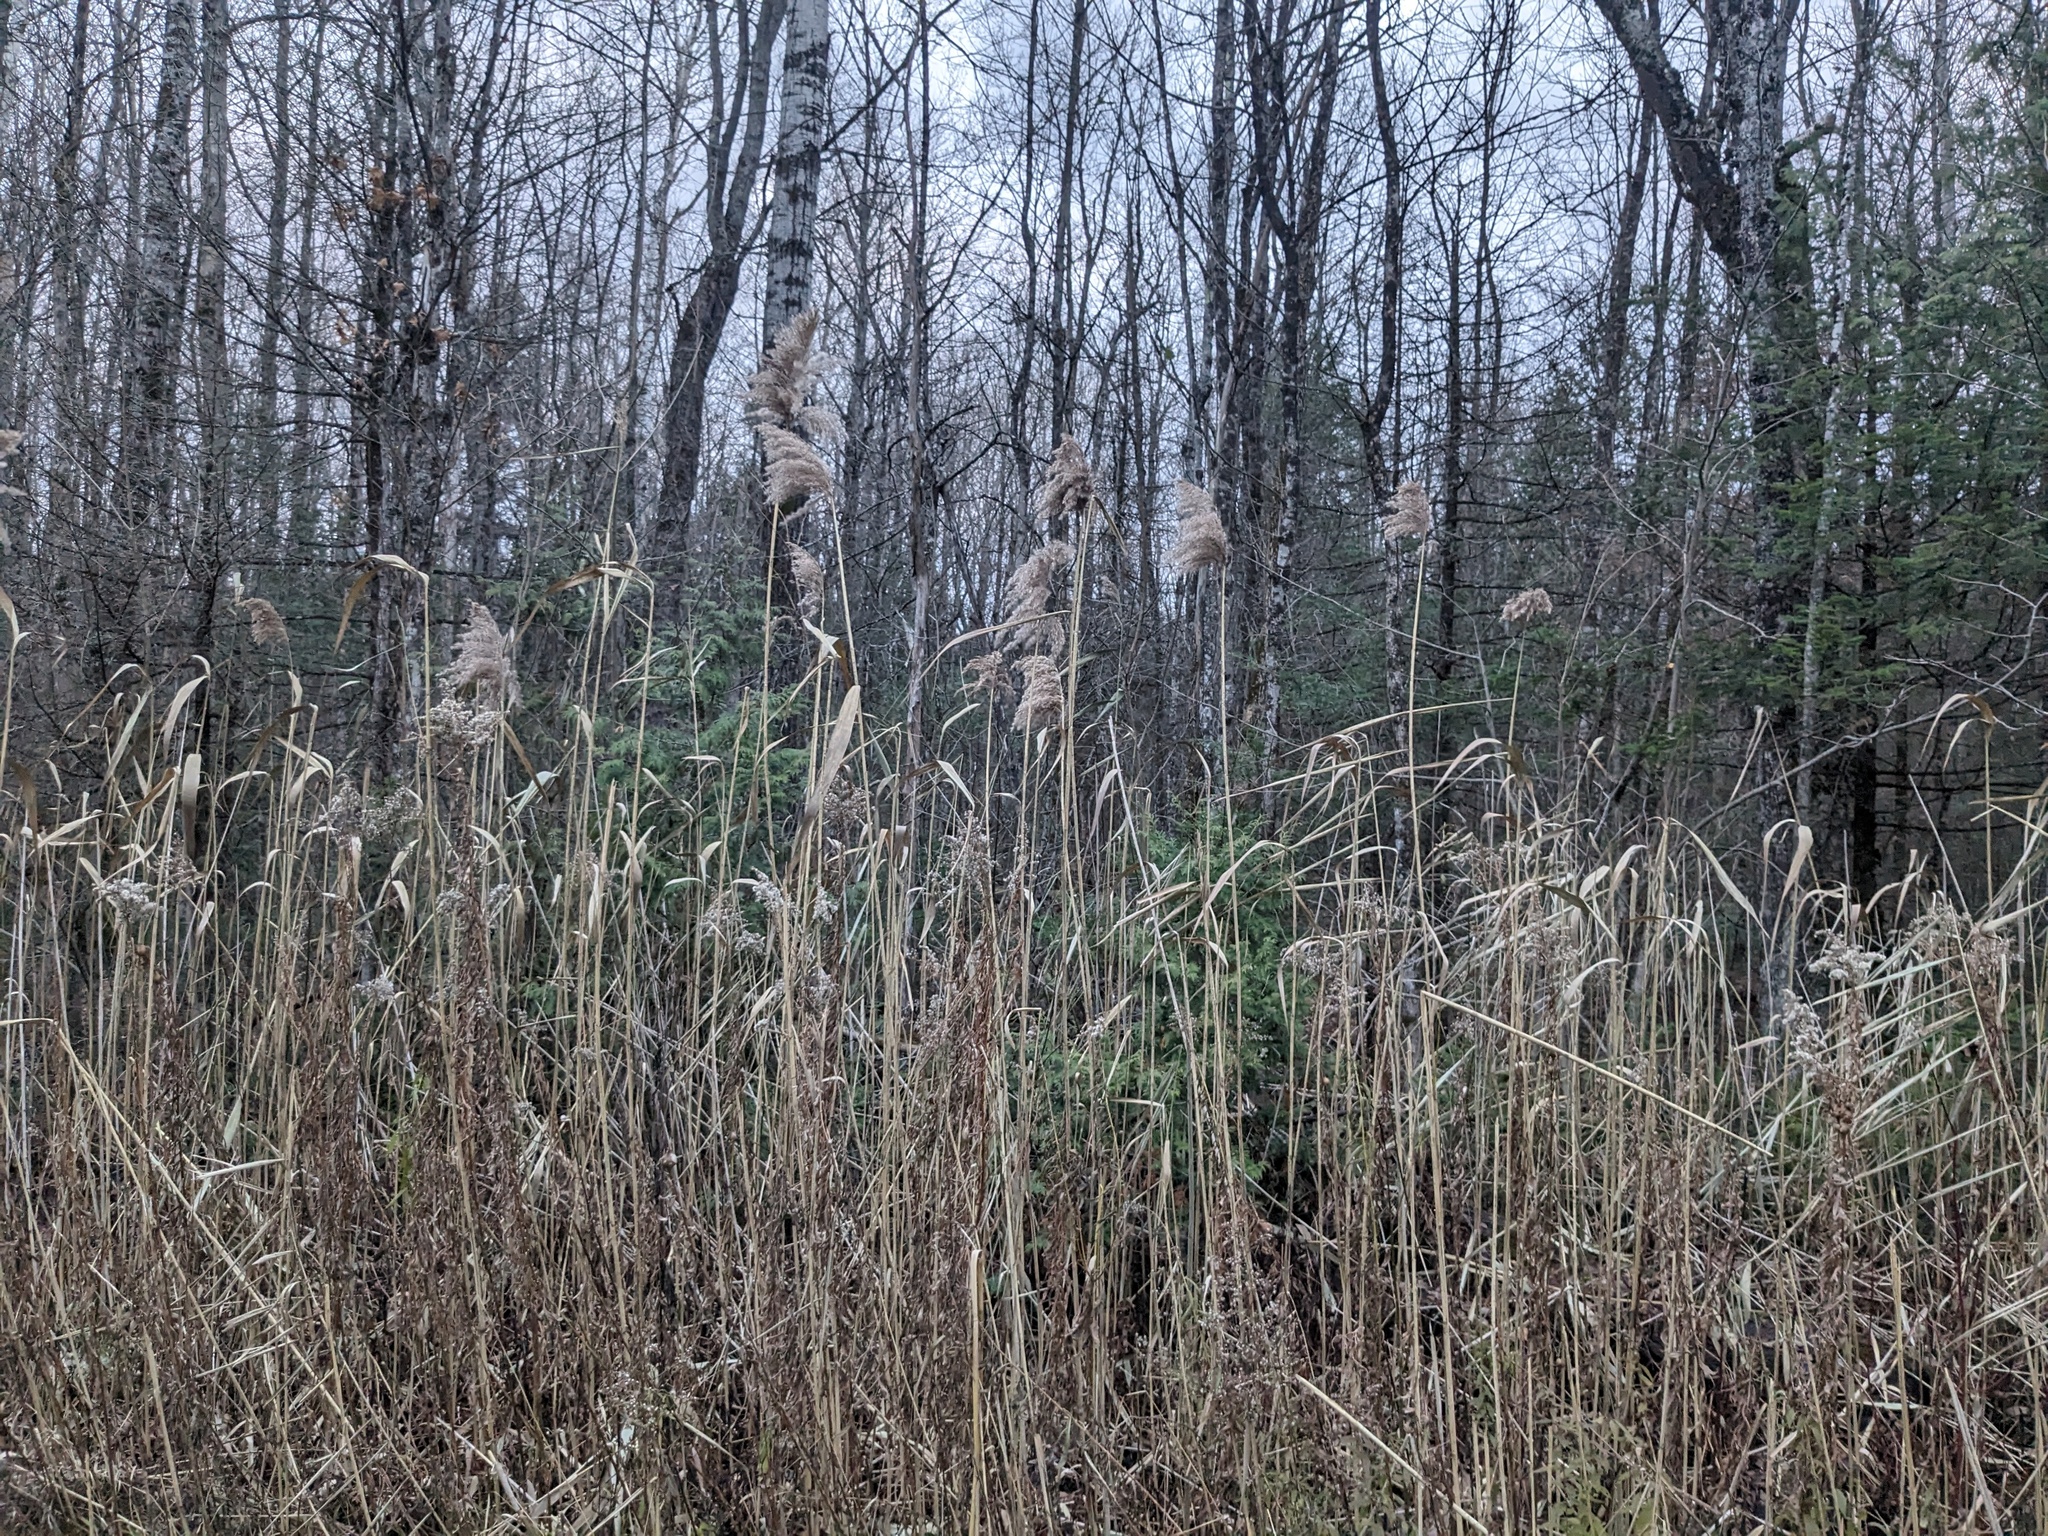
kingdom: Plantae
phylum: Tracheophyta
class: Liliopsida
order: Poales
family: Poaceae
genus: Phragmites
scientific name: Phragmites australis
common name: Common reed
